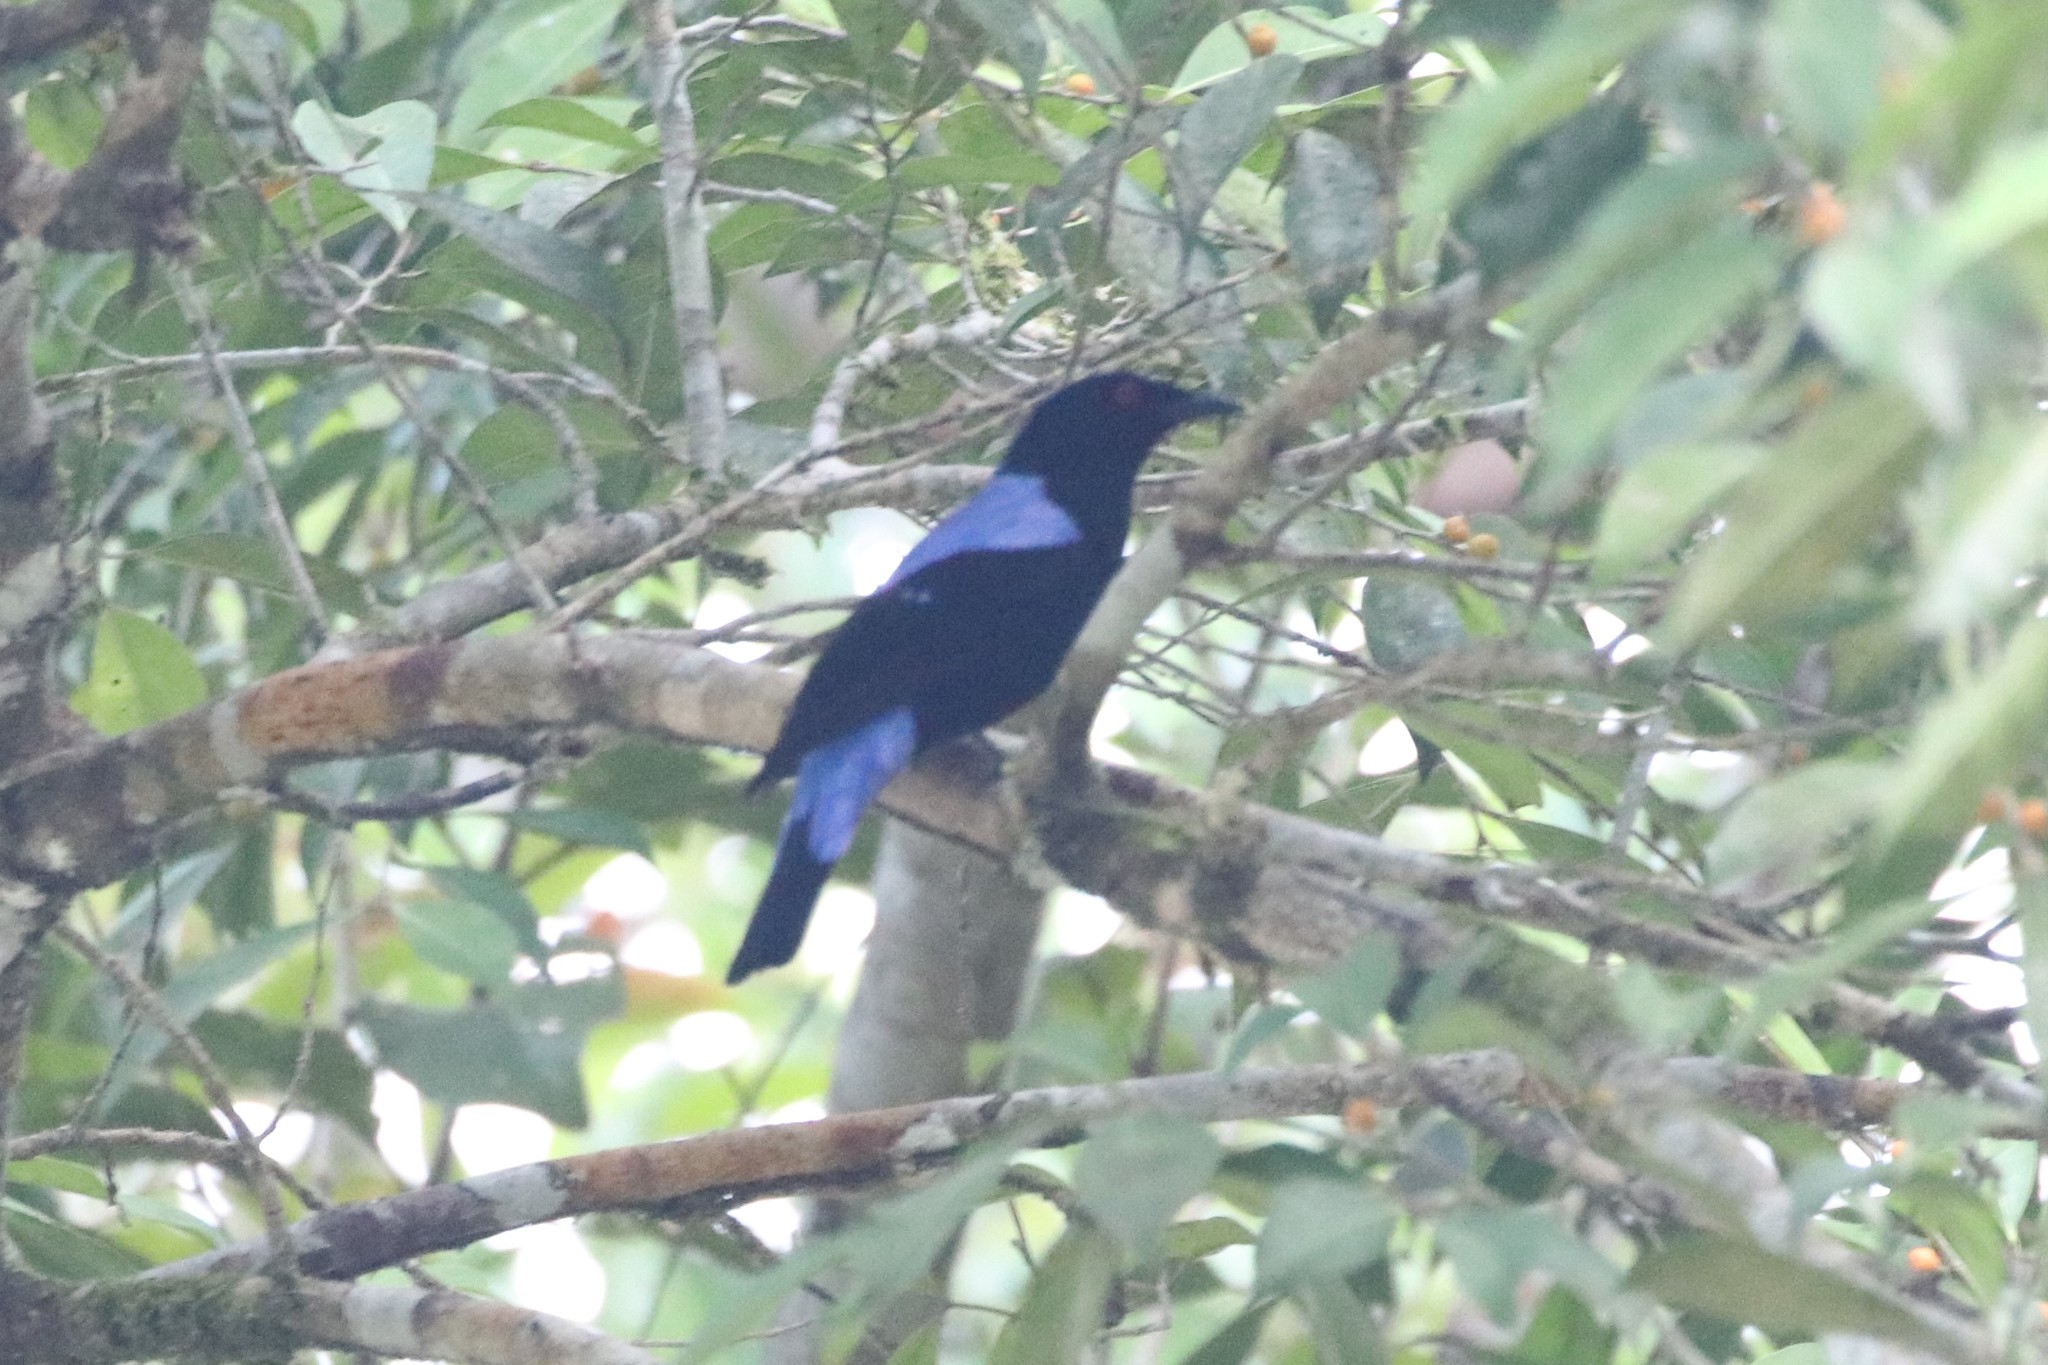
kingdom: Animalia
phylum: Chordata
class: Aves
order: Passeriformes
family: Irenidae
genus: Irena
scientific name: Irena puella
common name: Asian fairy-bluebird
